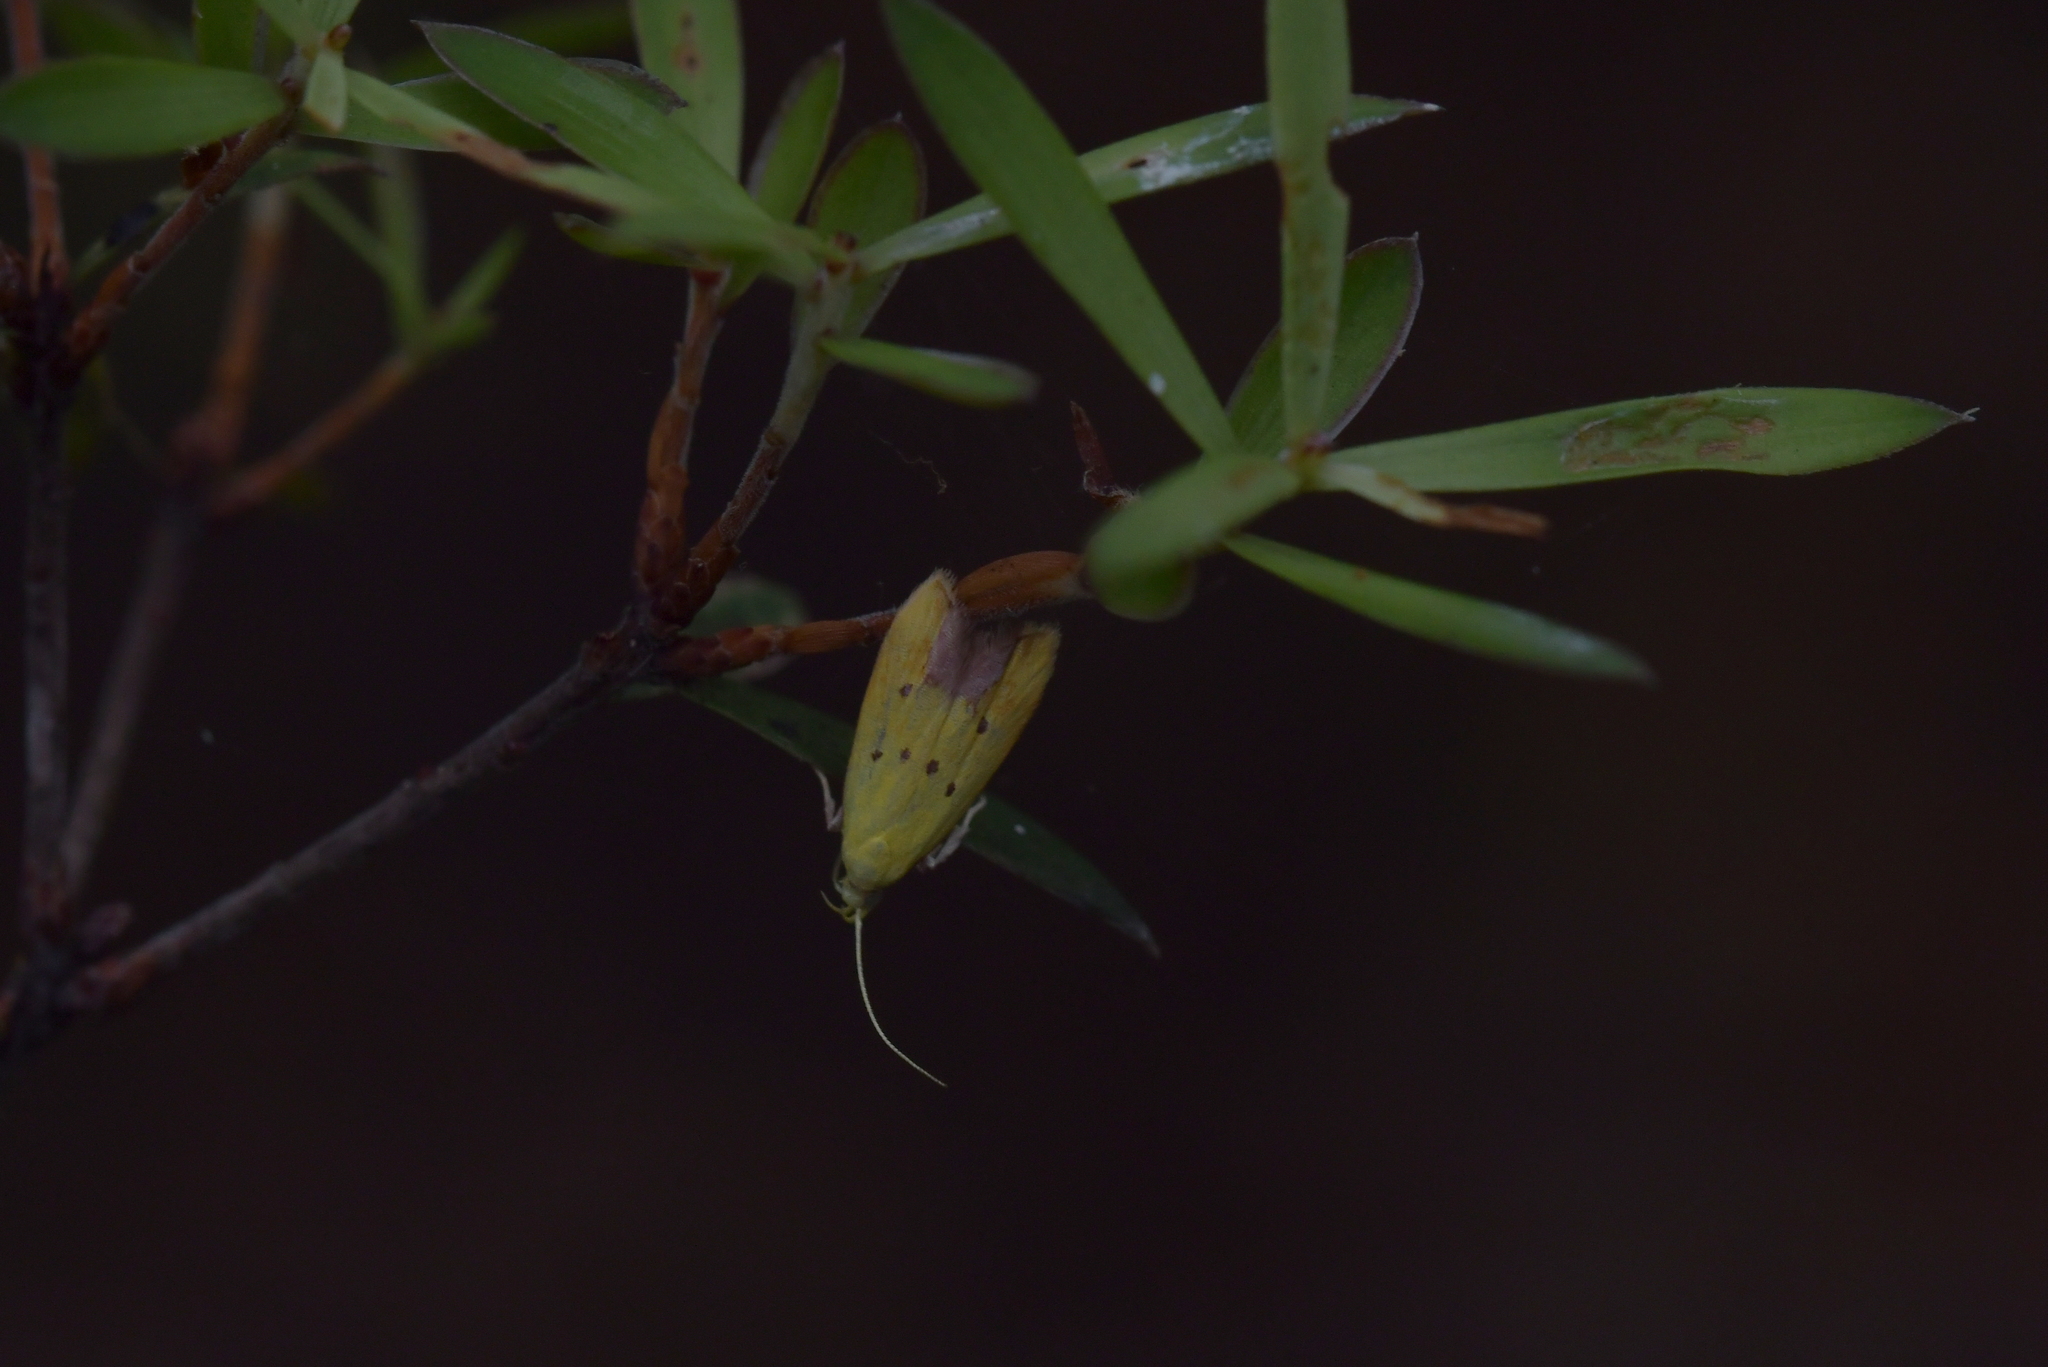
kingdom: Animalia
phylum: Arthropoda
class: Insecta
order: Lepidoptera
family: Oecophoridae
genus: Gymnobathra
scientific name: Gymnobathra flavidella
